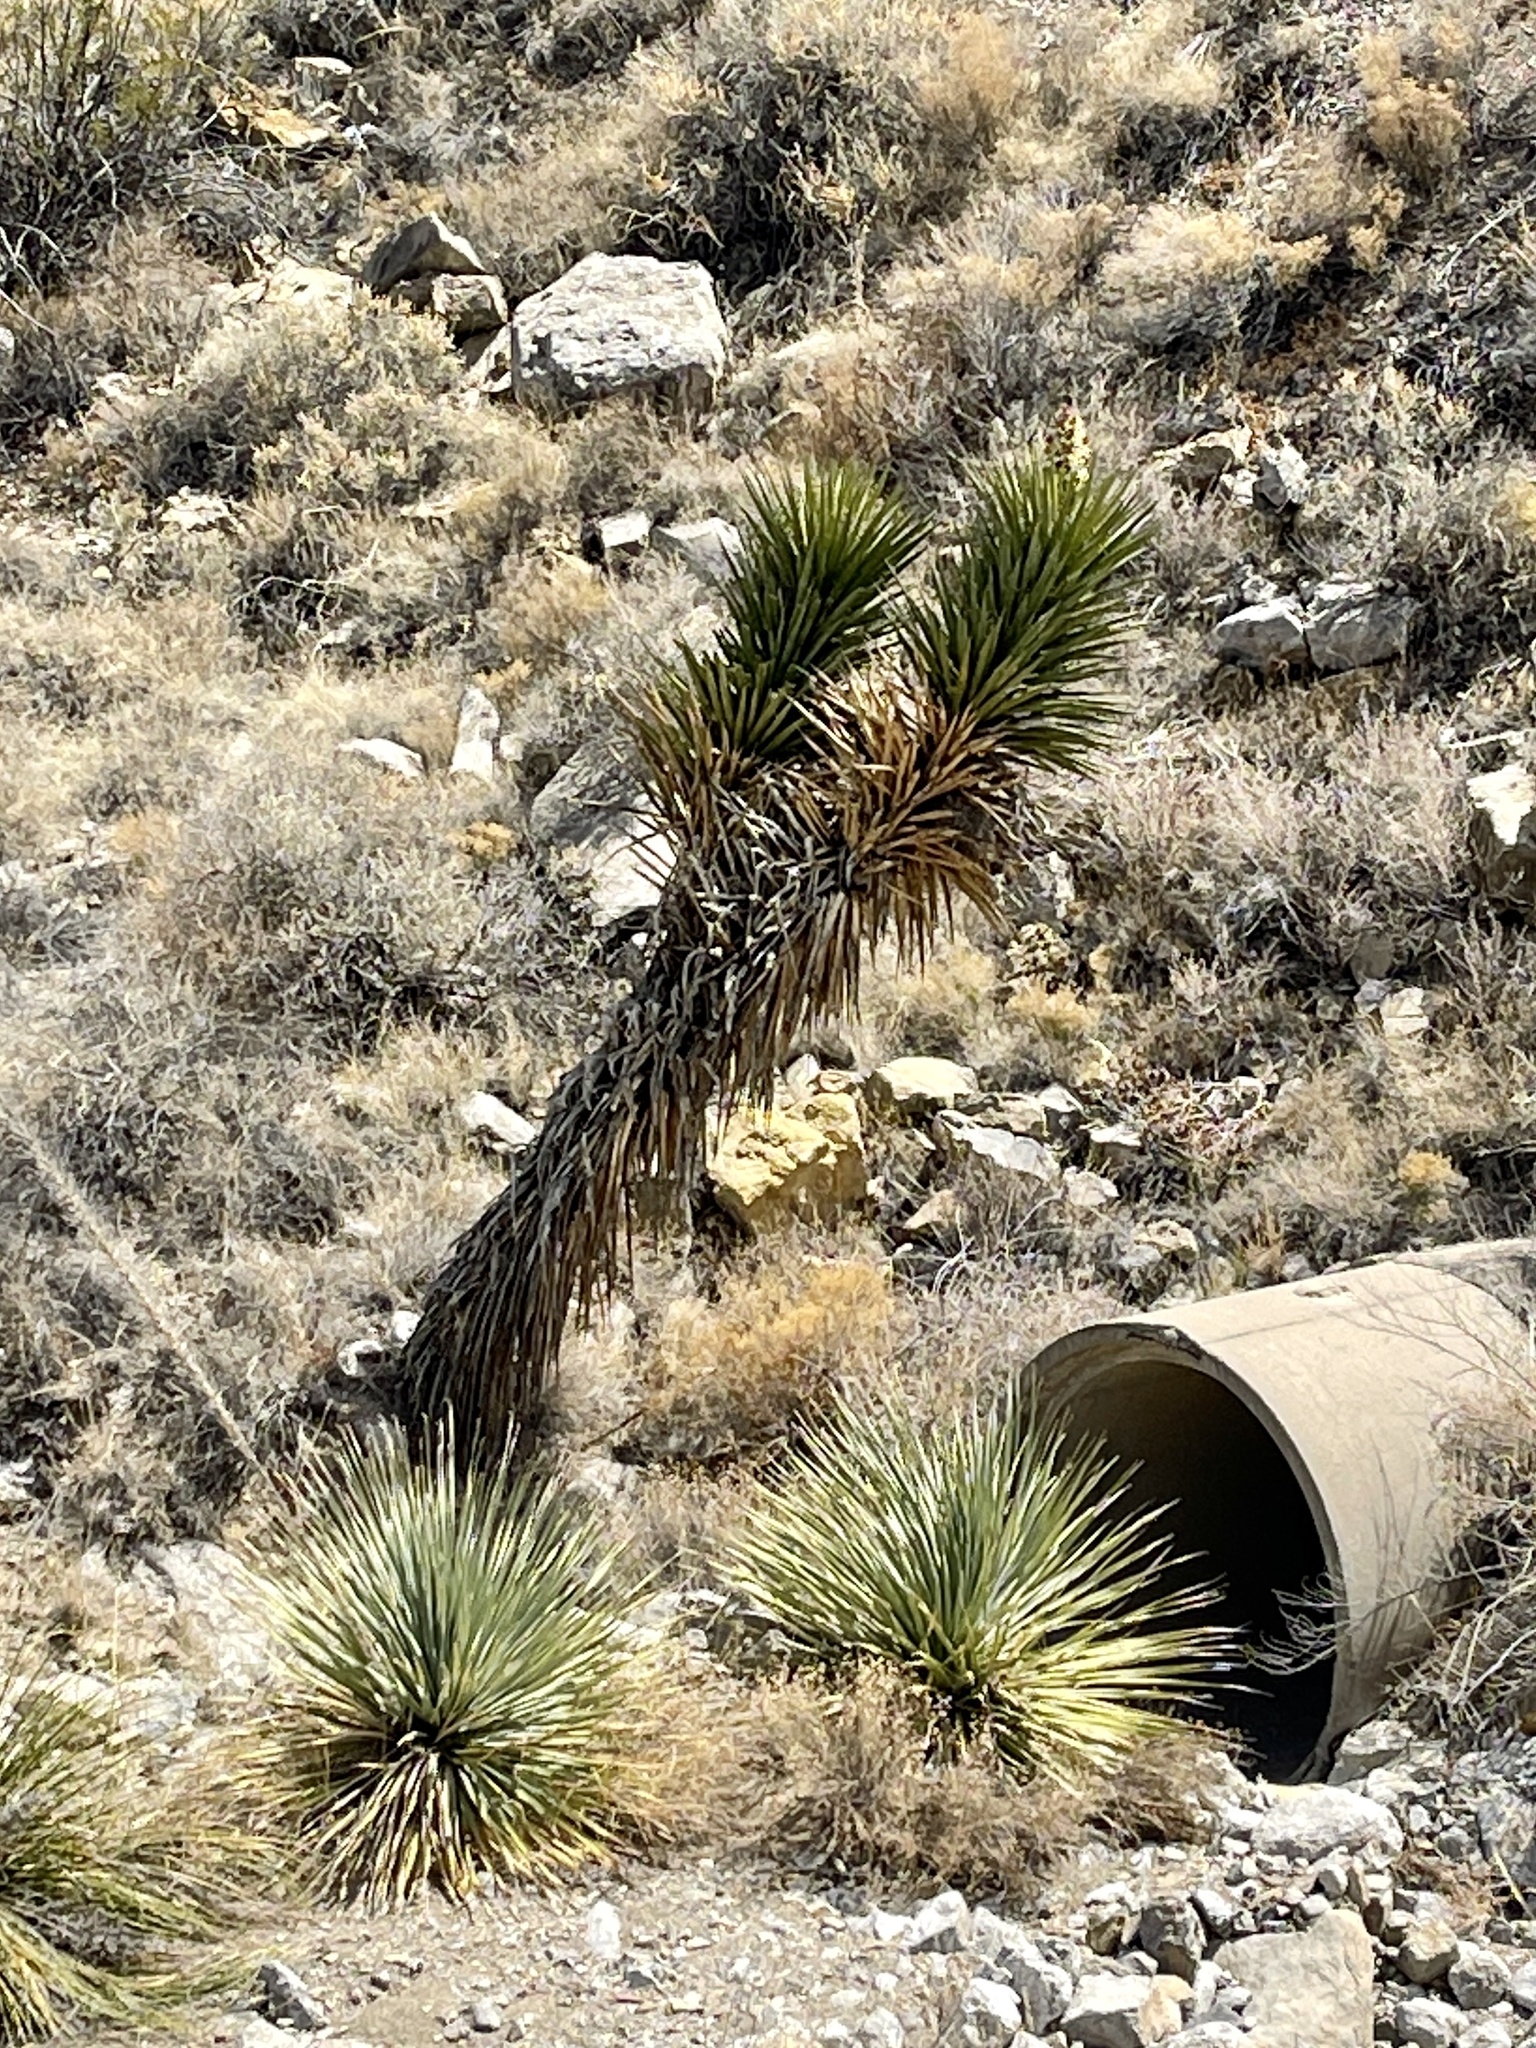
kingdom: Plantae
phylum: Tracheophyta
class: Liliopsida
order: Asparagales
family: Asparagaceae
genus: Yucca
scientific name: Yucca treculiana
